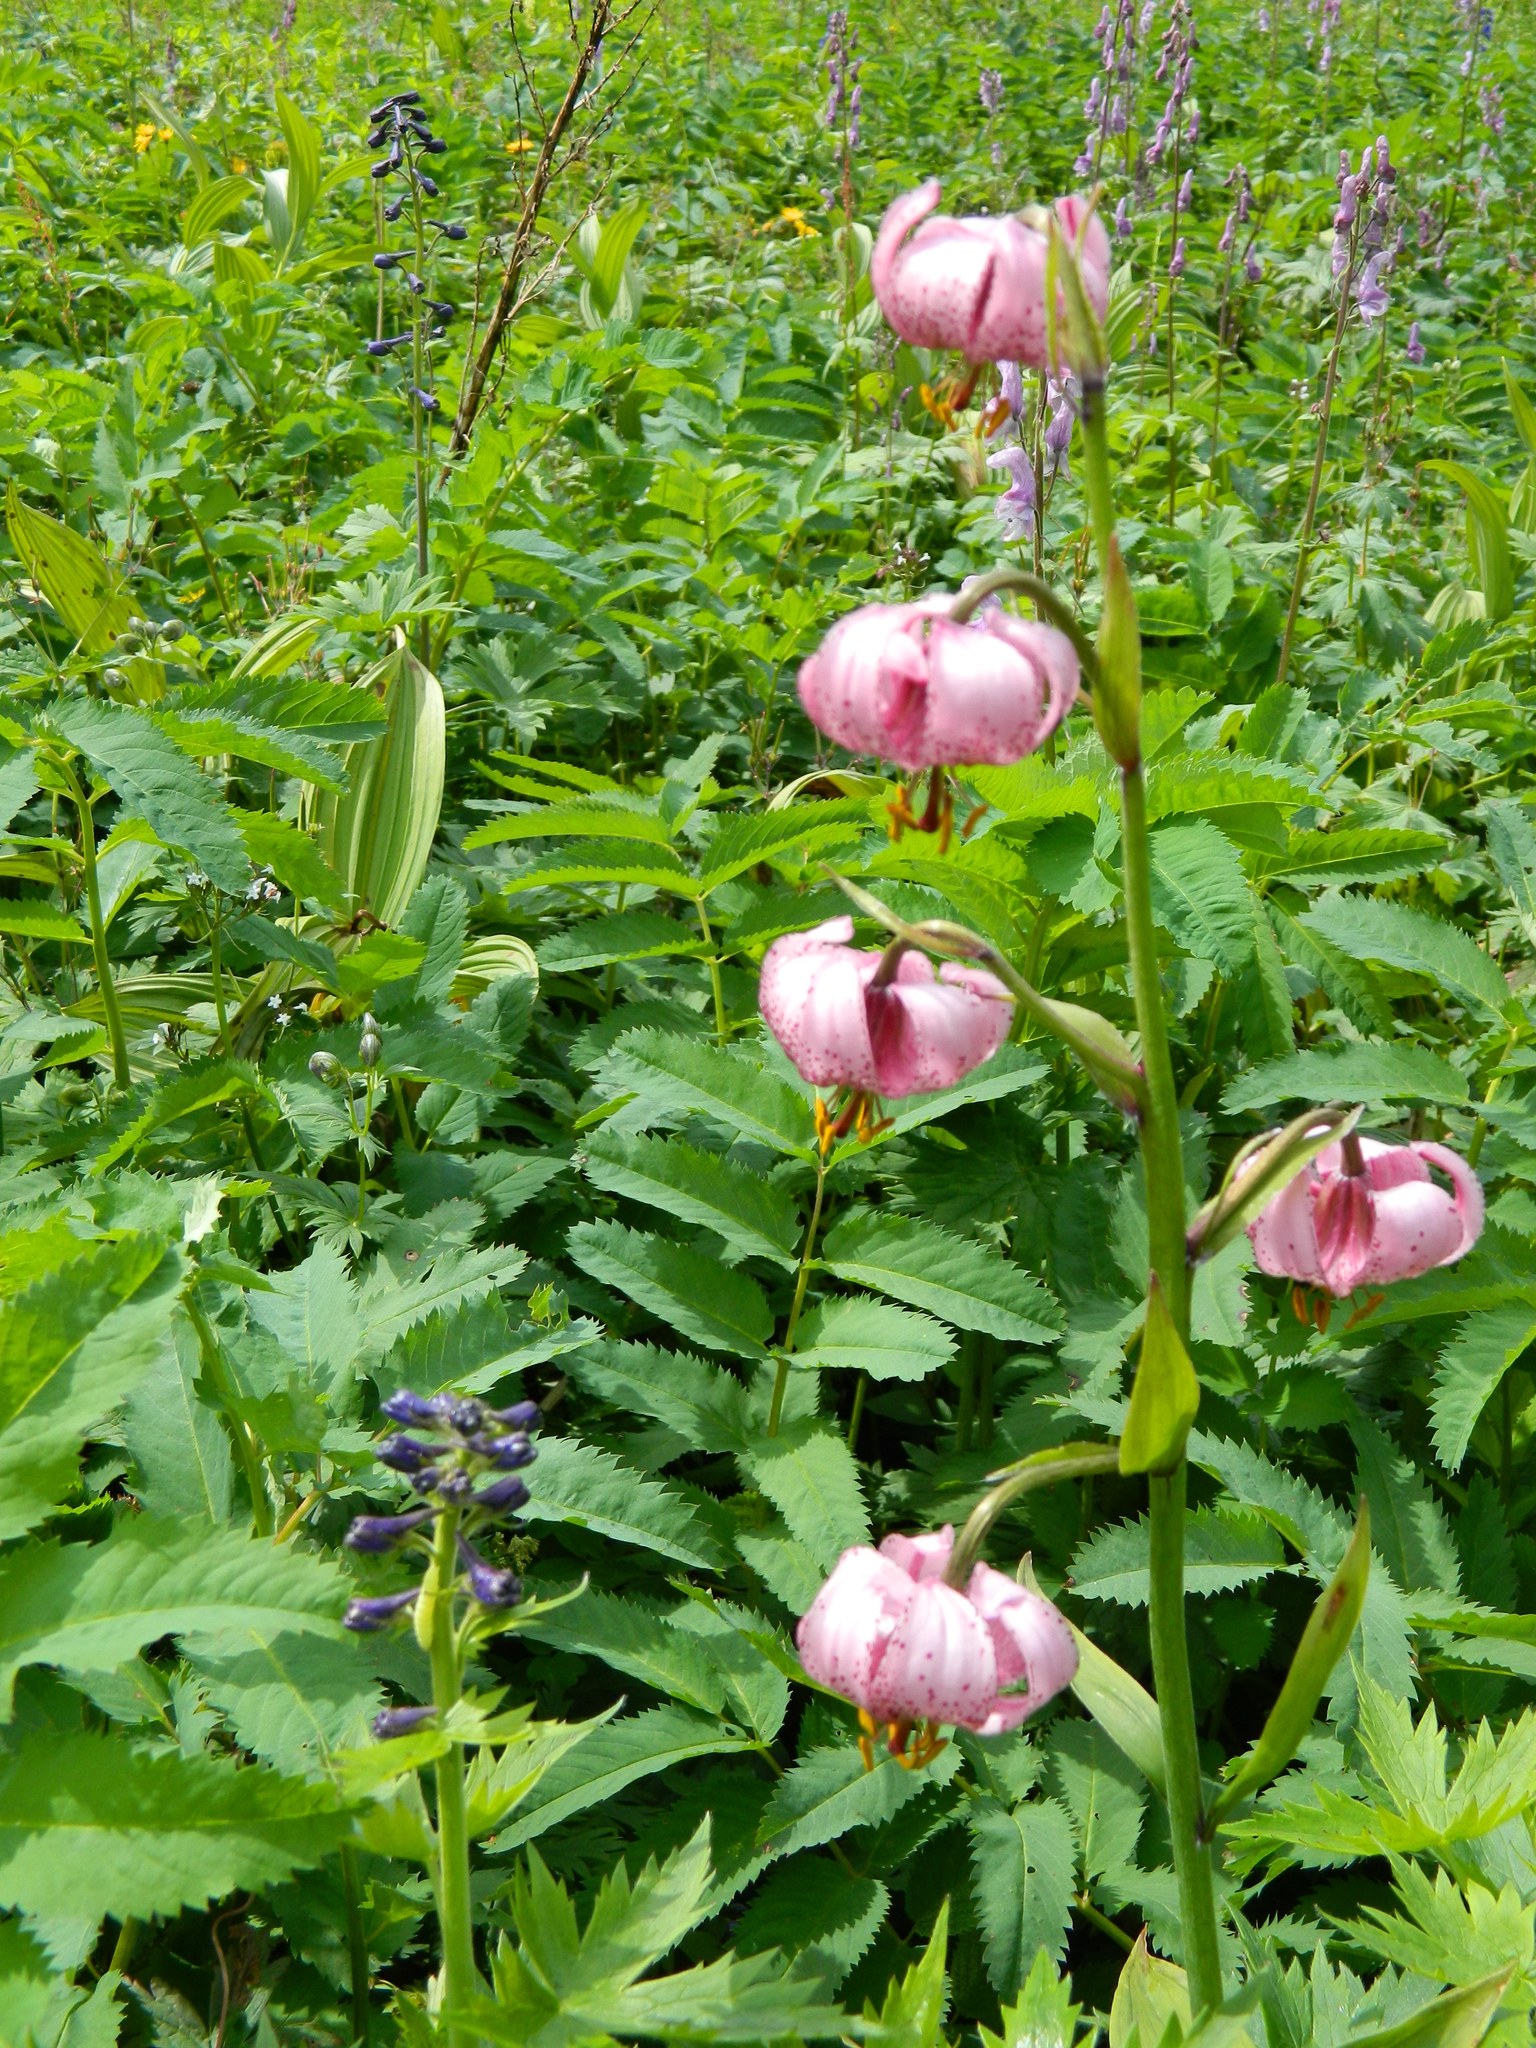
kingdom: Plantae
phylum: Tracheophyta
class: Liliopsida
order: Liliales
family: Liliaceae
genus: Lilium
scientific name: Lilium martagon
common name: Martagon lily
